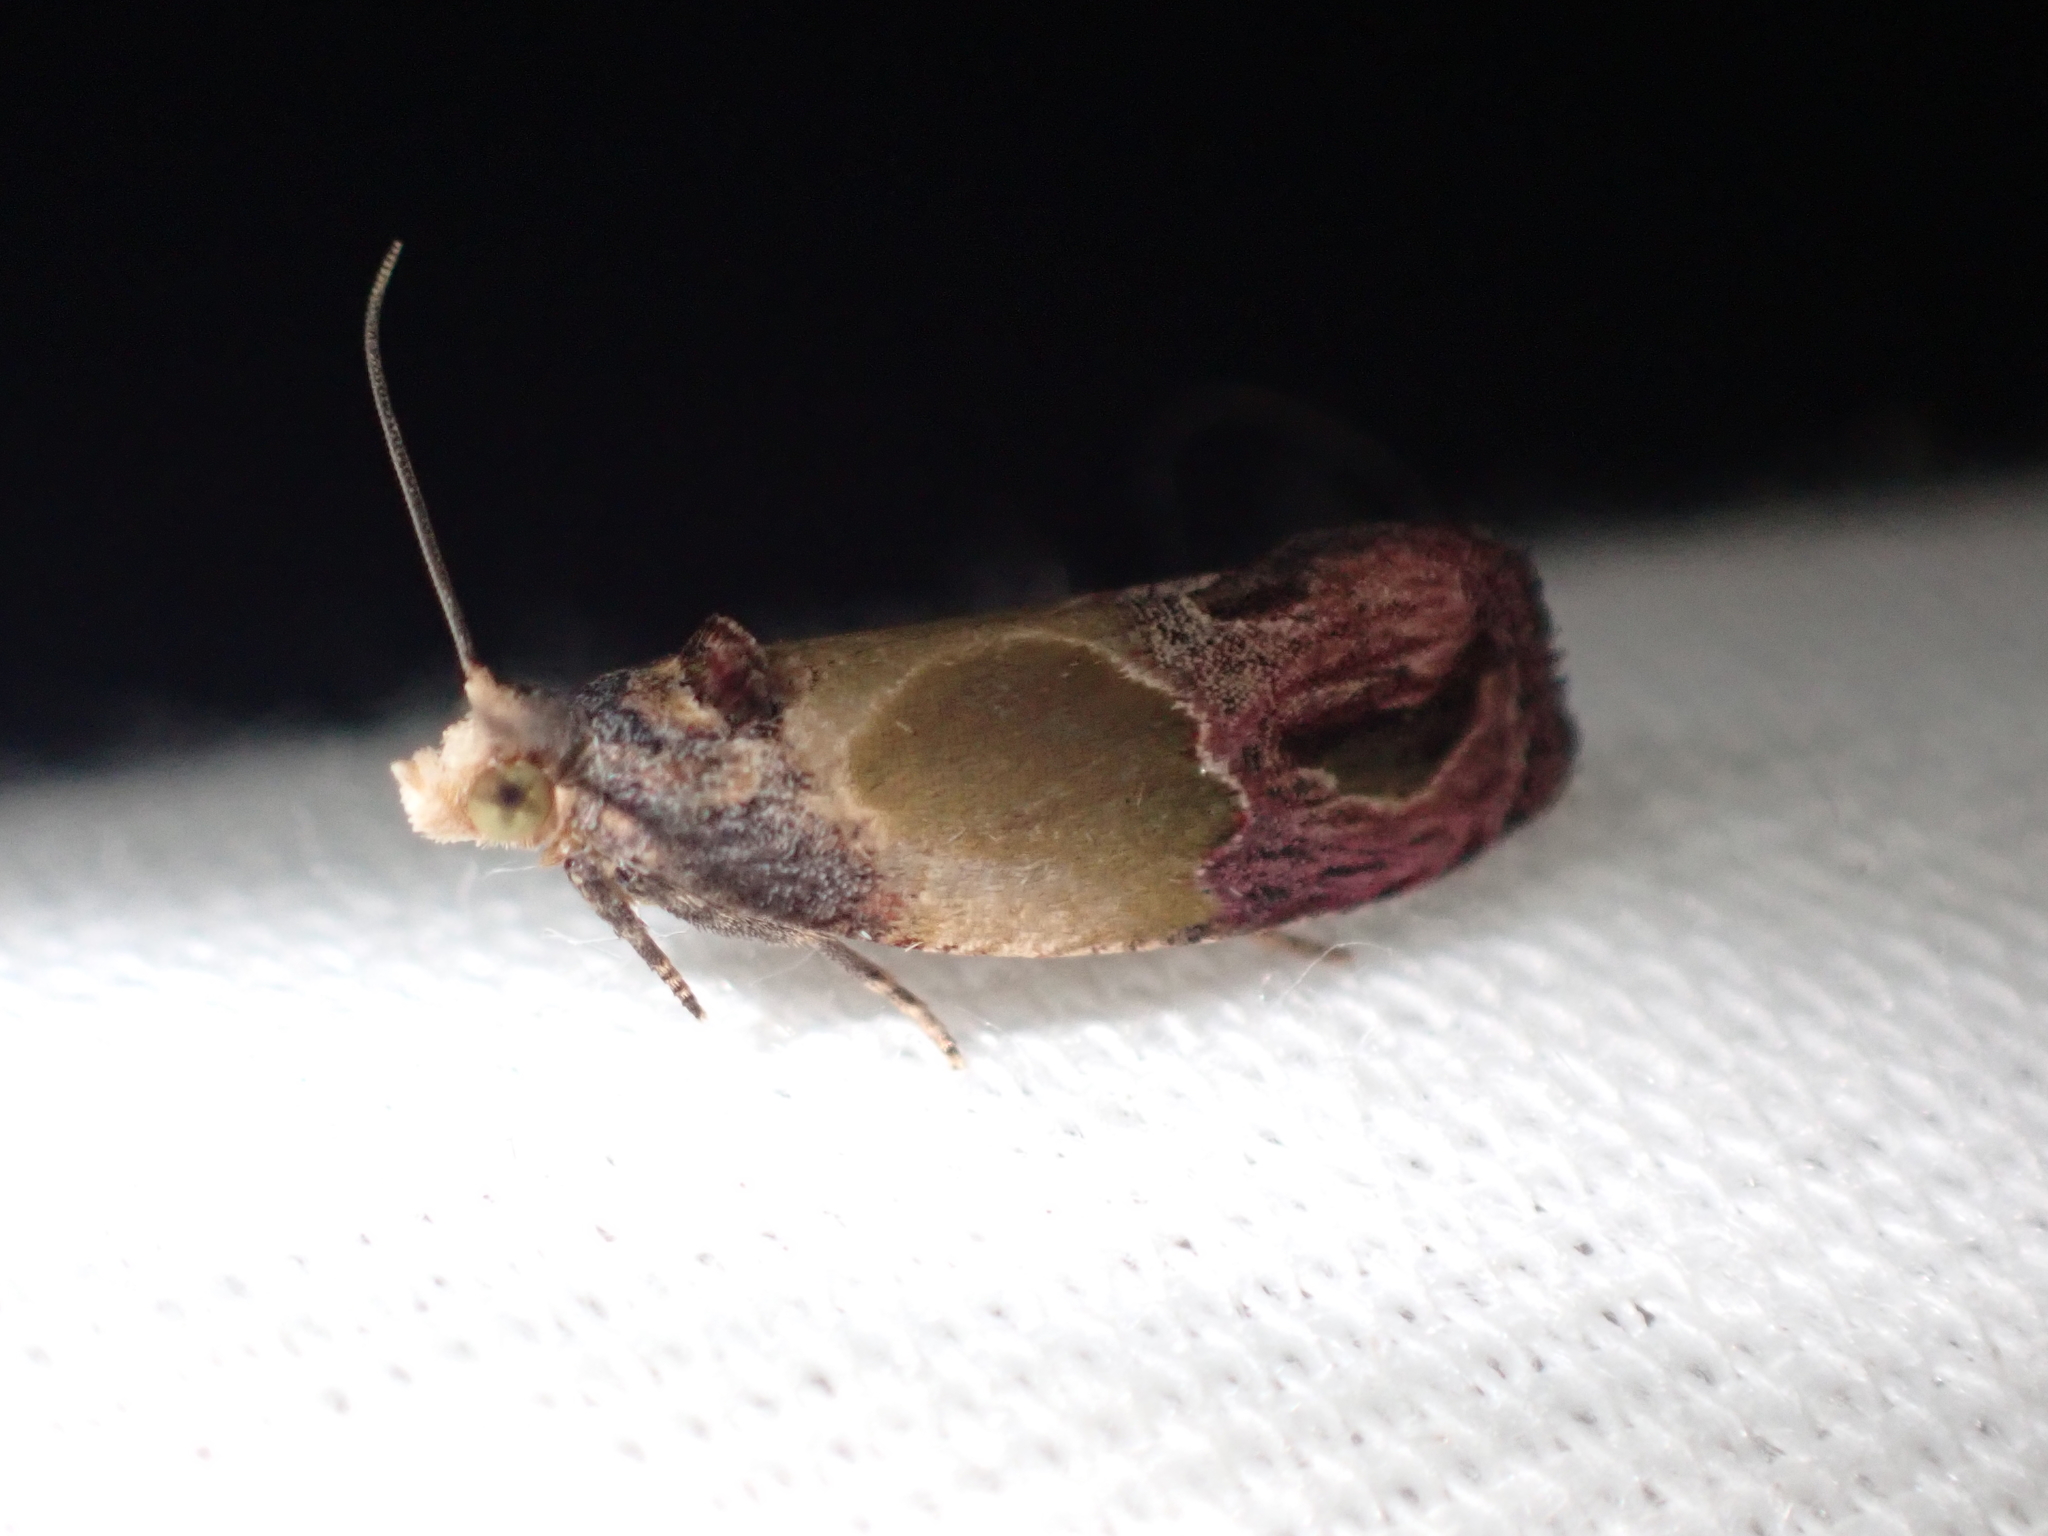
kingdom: Animalia
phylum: Arthropoda
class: Insecta
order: Lepidoptera
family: Tortricidae
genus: Eumarozia
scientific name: Eumarozia malachitana
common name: Sculptured moth
